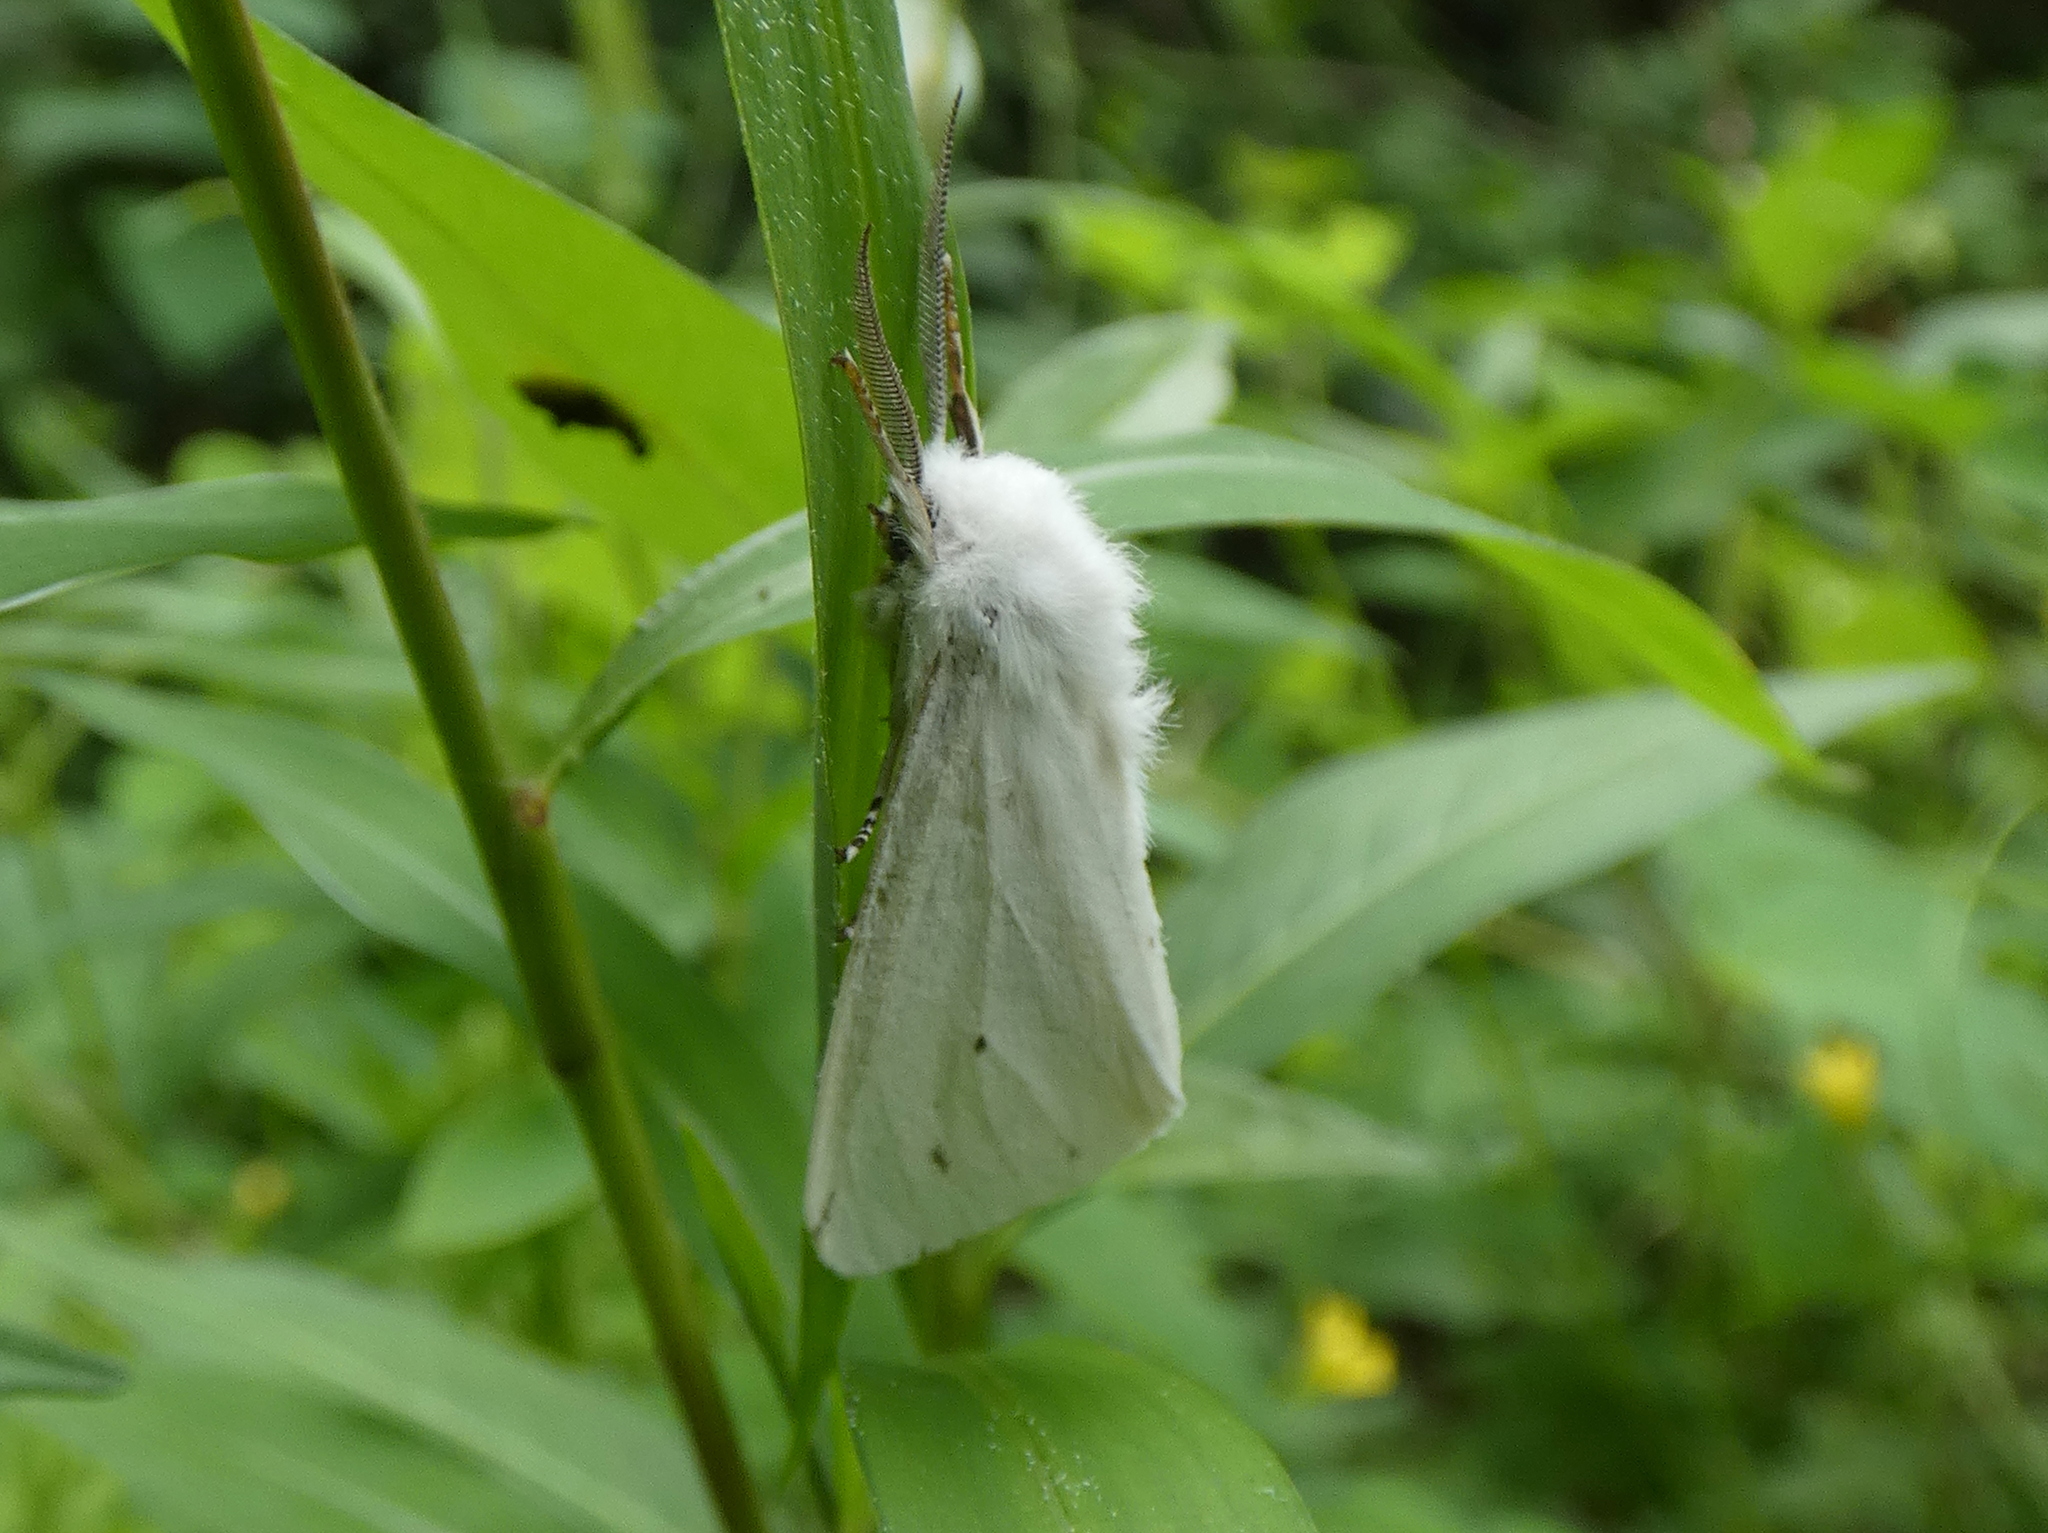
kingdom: Animalia
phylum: Arthropoda
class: Insecta
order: Lepidoptera
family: Erebidae
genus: Spilosoma
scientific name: Spilosoma virginica
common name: Virginia tiger moth
